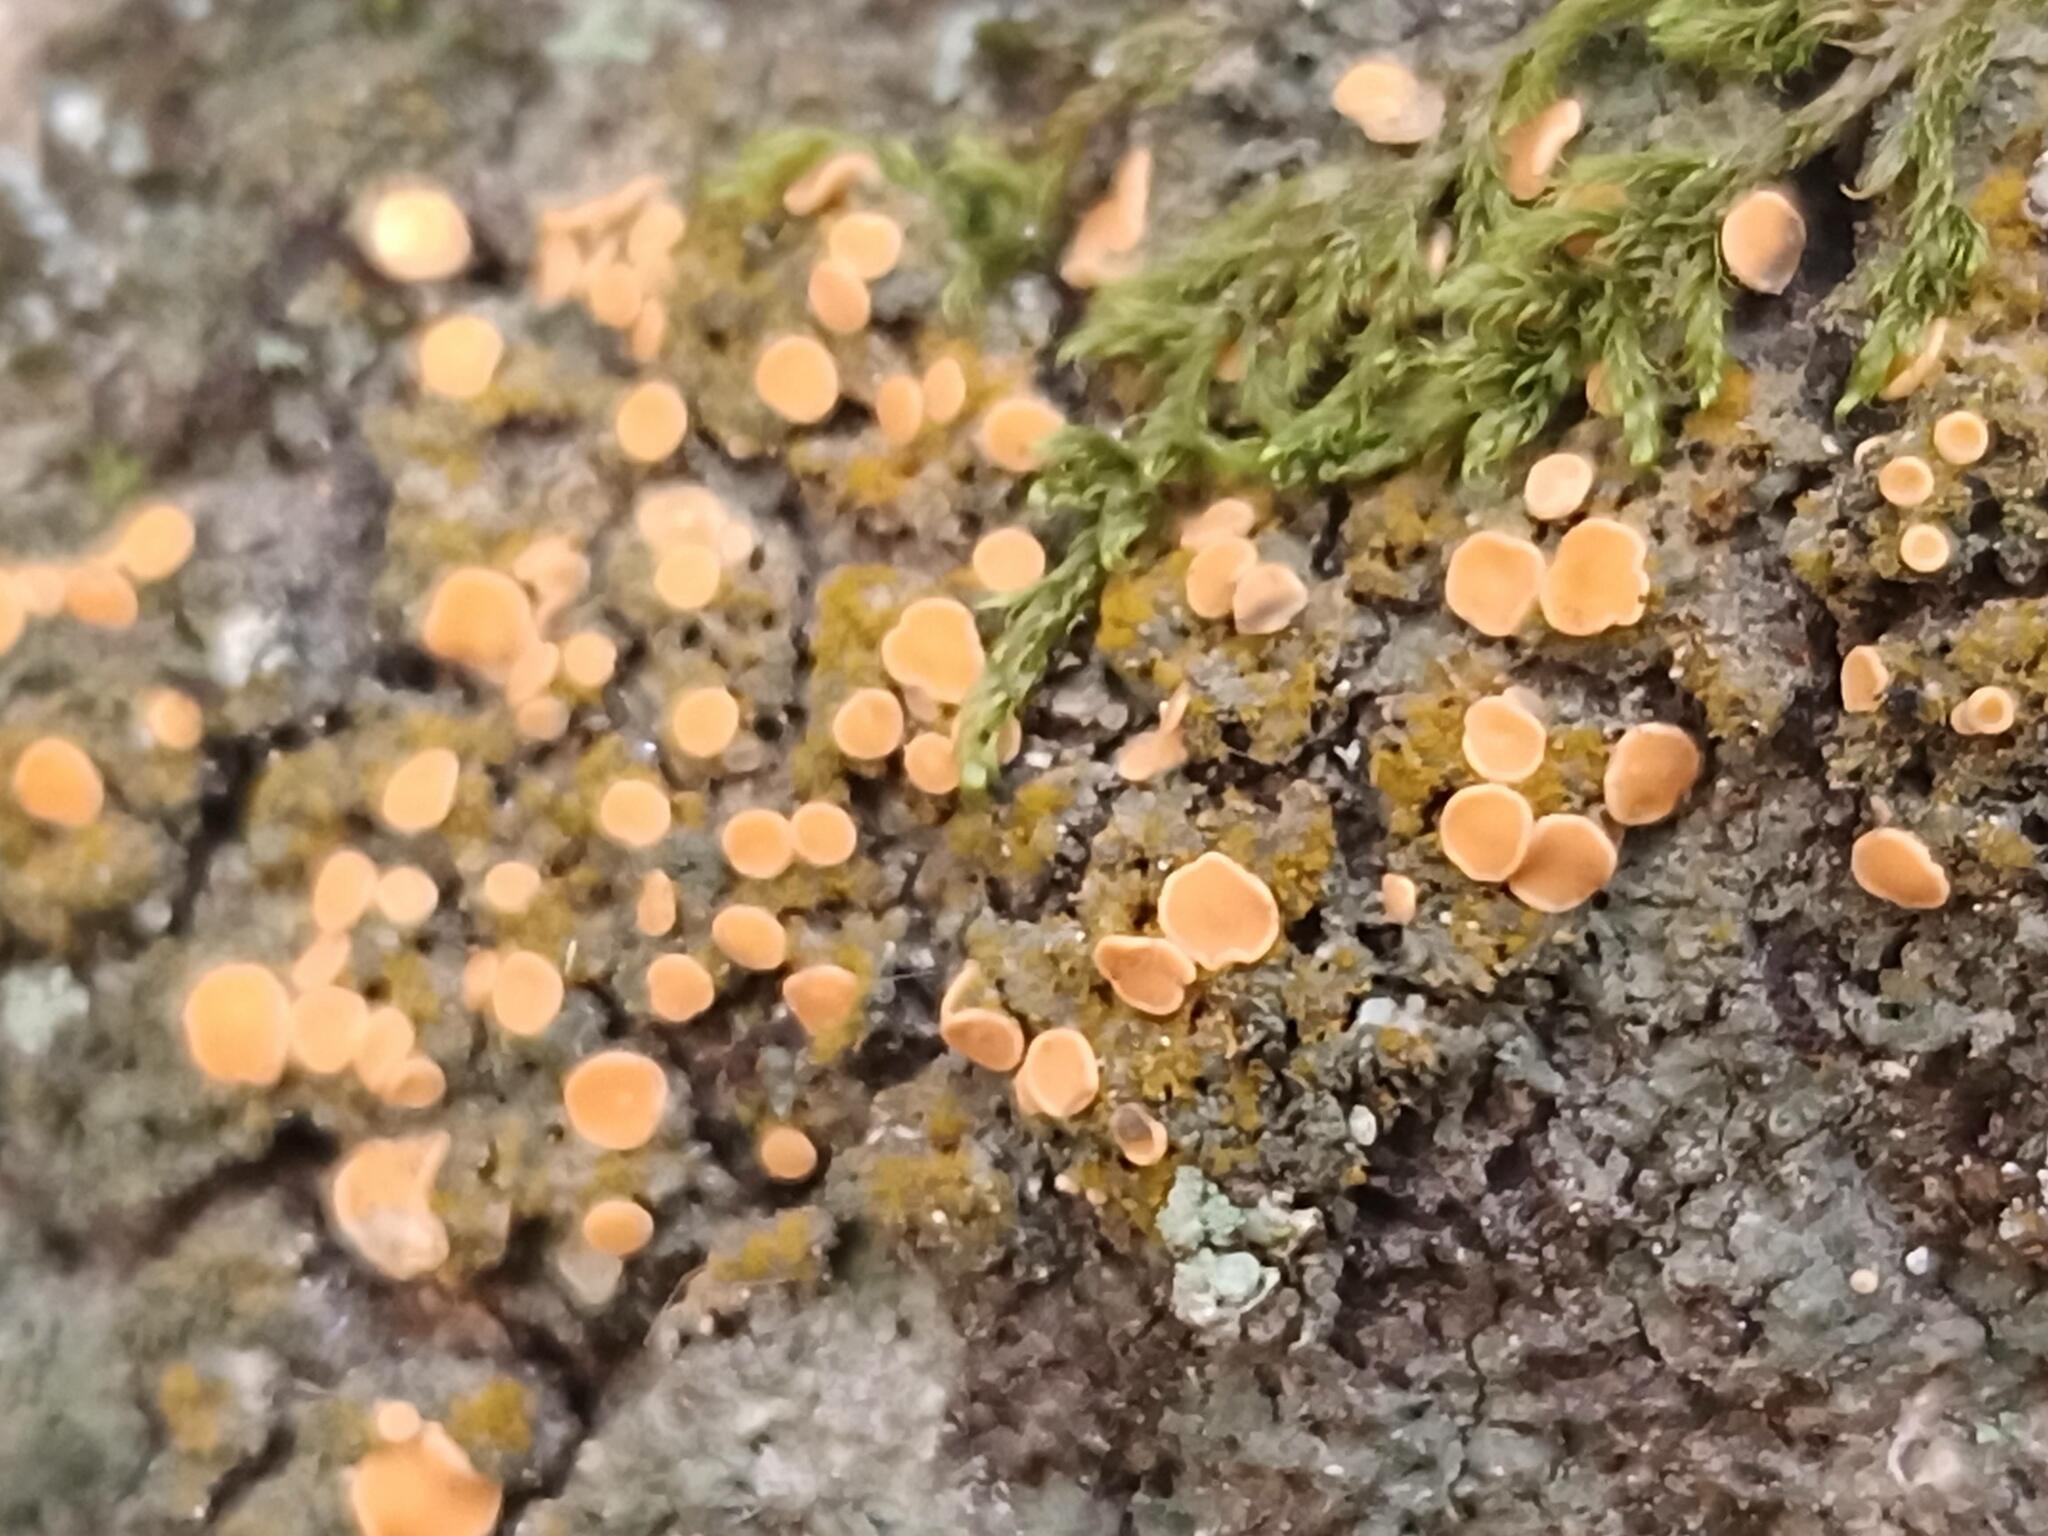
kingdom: Fungi
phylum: Ascomycota
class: Lecanoromycetes
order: Ostropales
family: Coenogoniaceae
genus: Coenogonium
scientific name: Coenogonium luteum
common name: Orange dimple lichen
